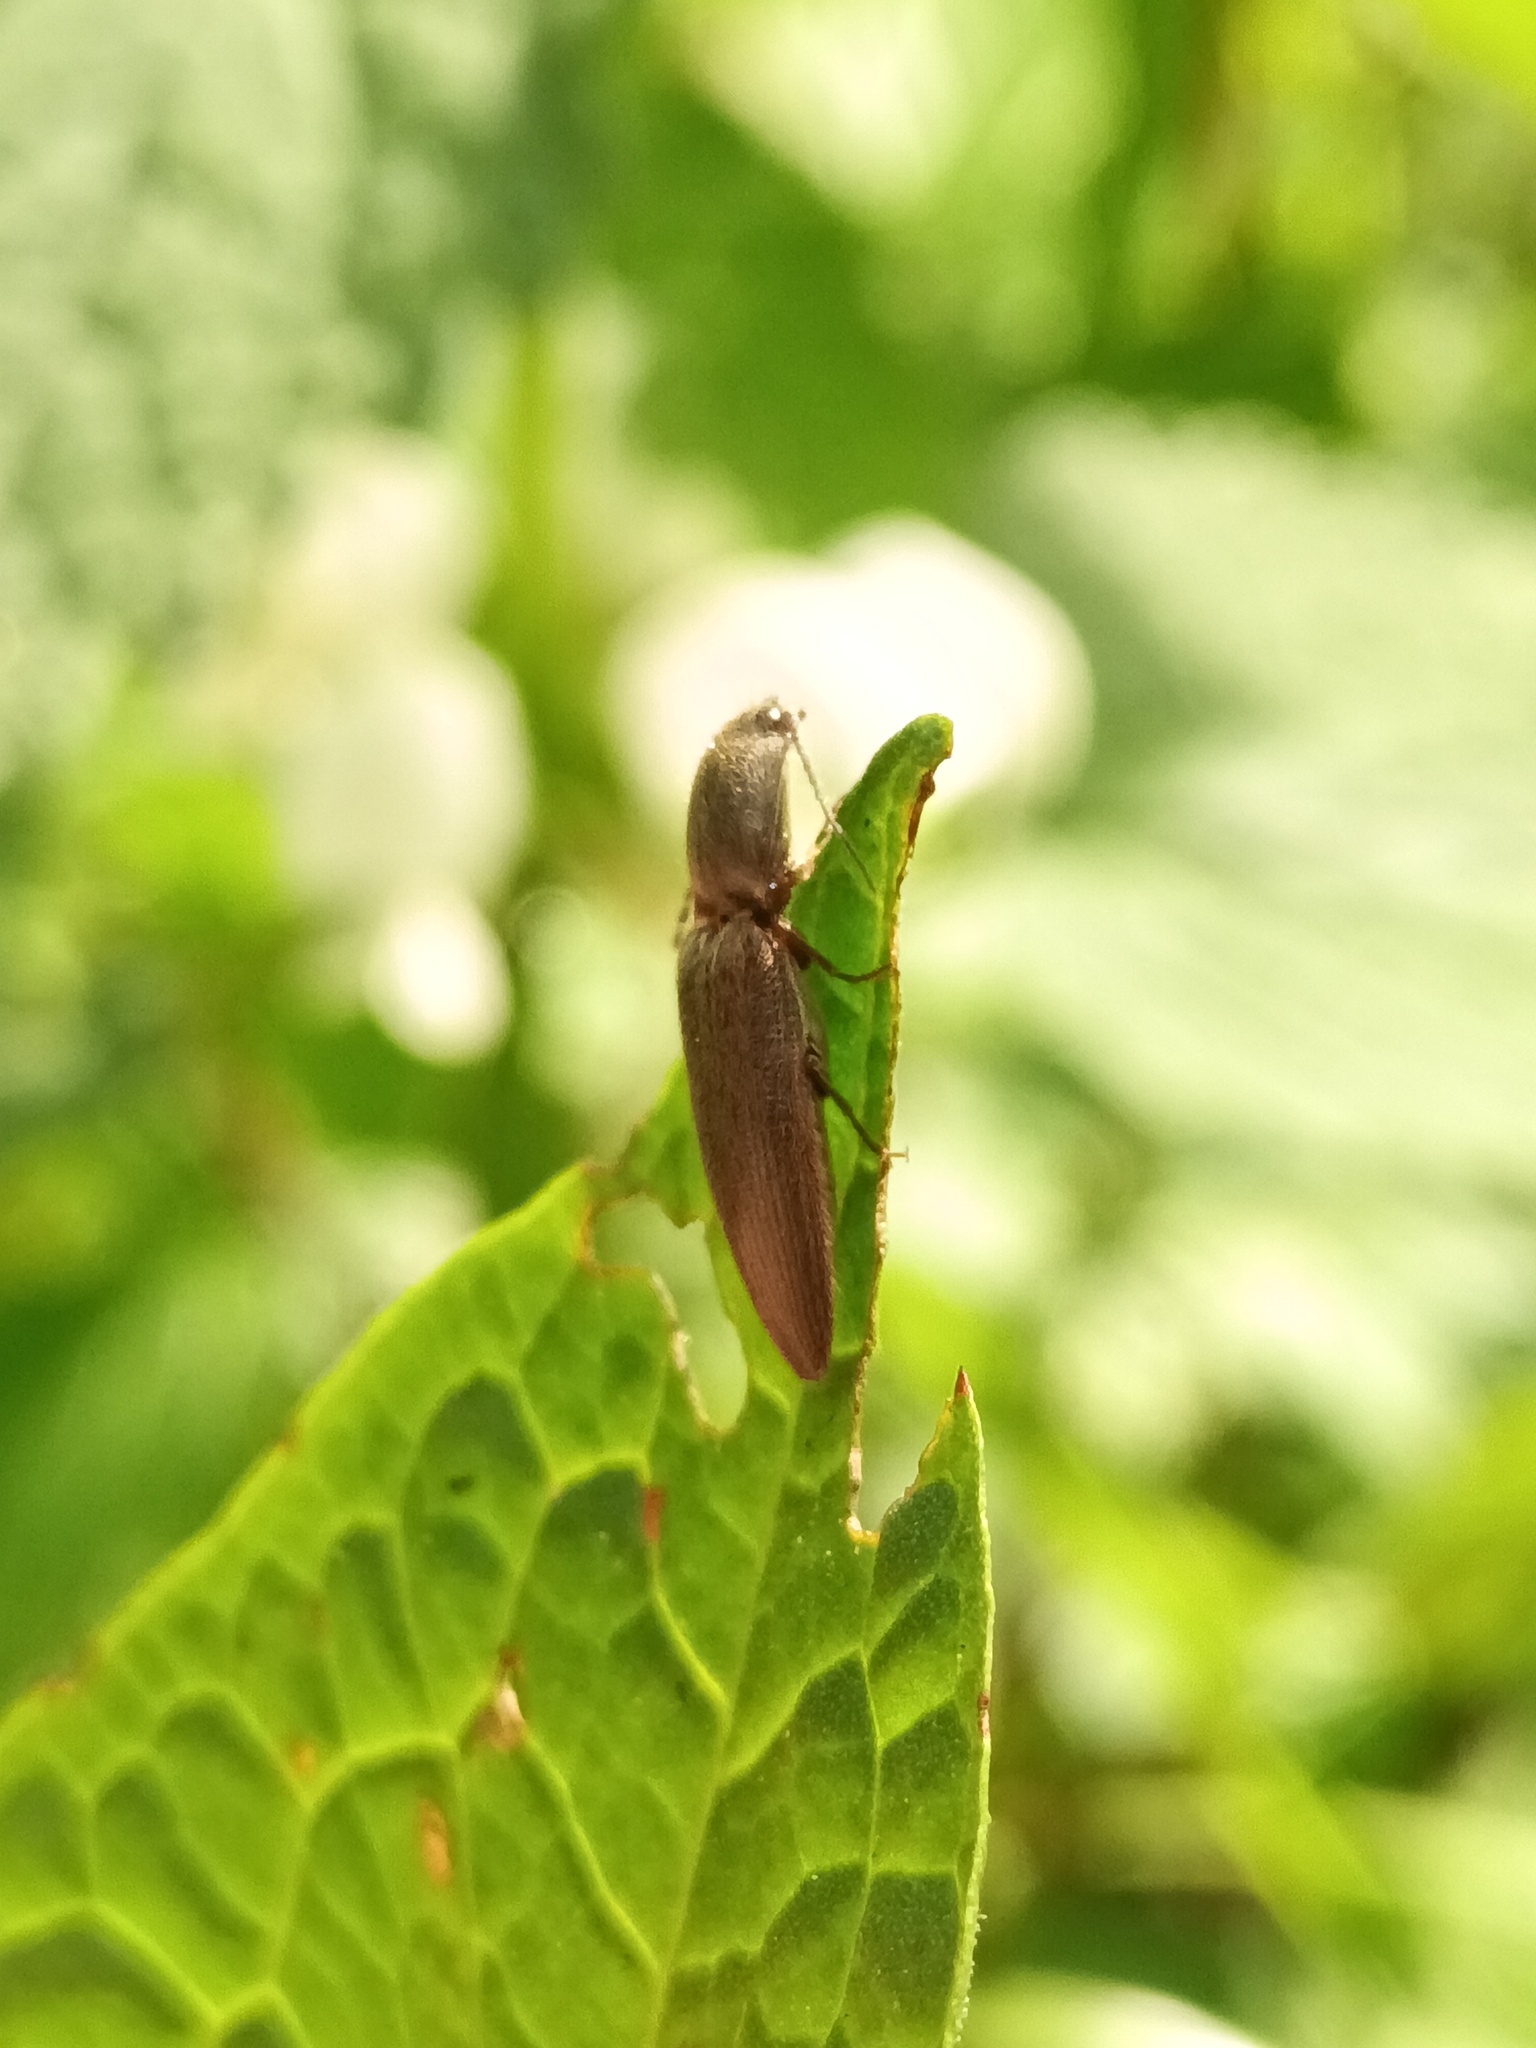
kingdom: Animalia
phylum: Arthropoda
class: Insecta
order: Coleoptera
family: Elateridae
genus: Athous
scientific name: Athous haemorrhoidalis
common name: Red-brown click beetle
